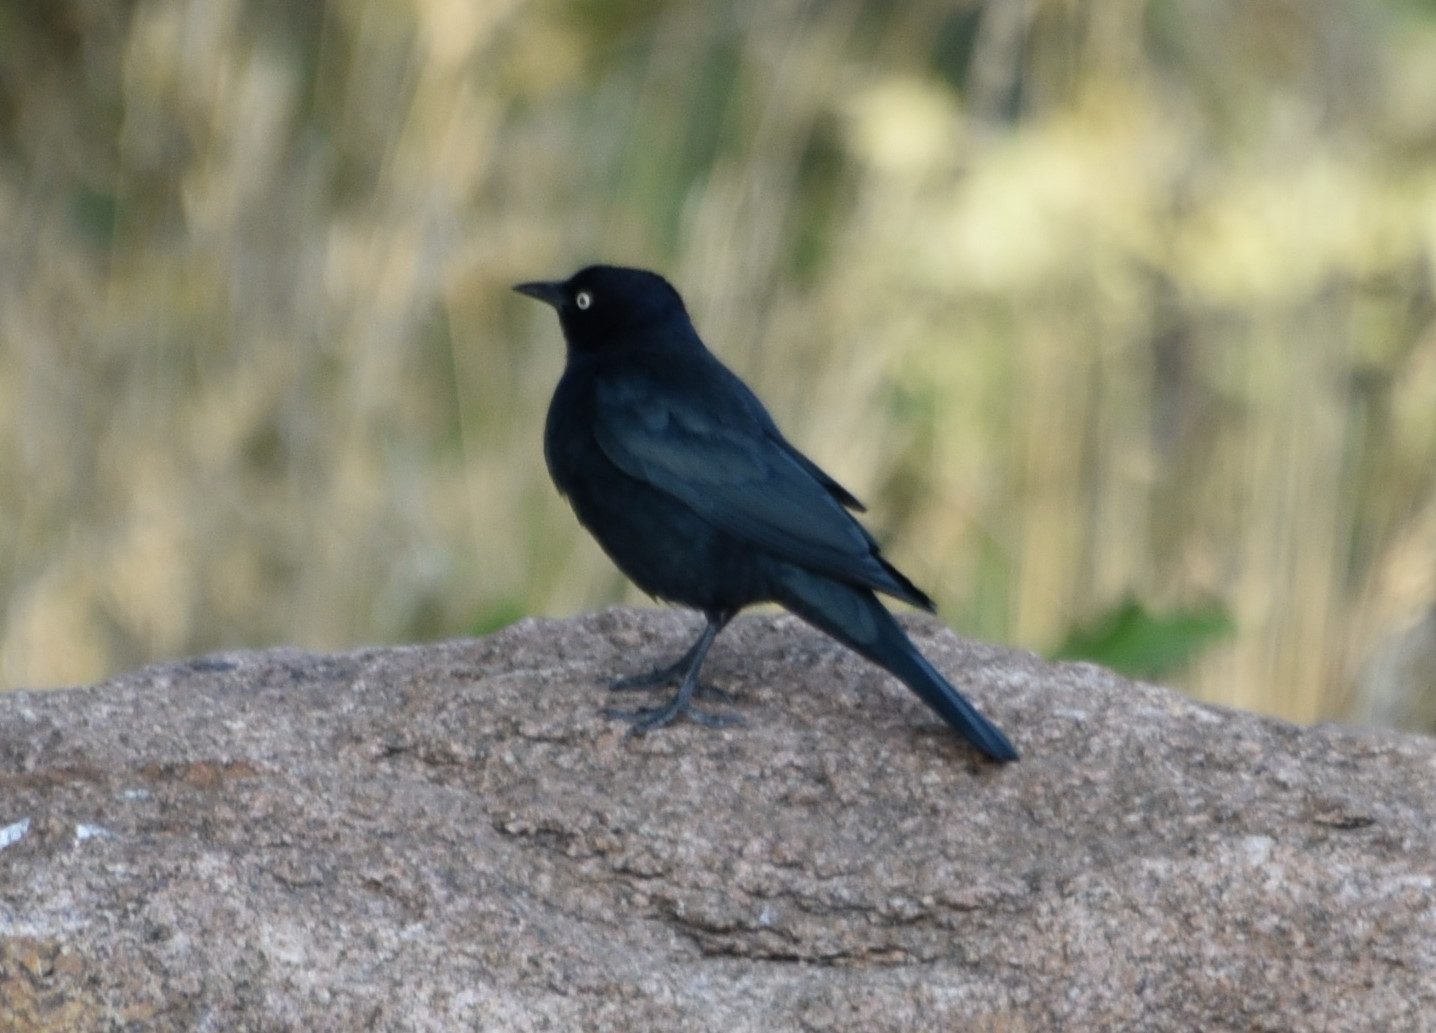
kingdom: Animalia
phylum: Chordata
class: Aves
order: Passeriformes
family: Icteridae
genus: Euphagus
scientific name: Euphagus cyanocephalus
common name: Brewer's blackbird
